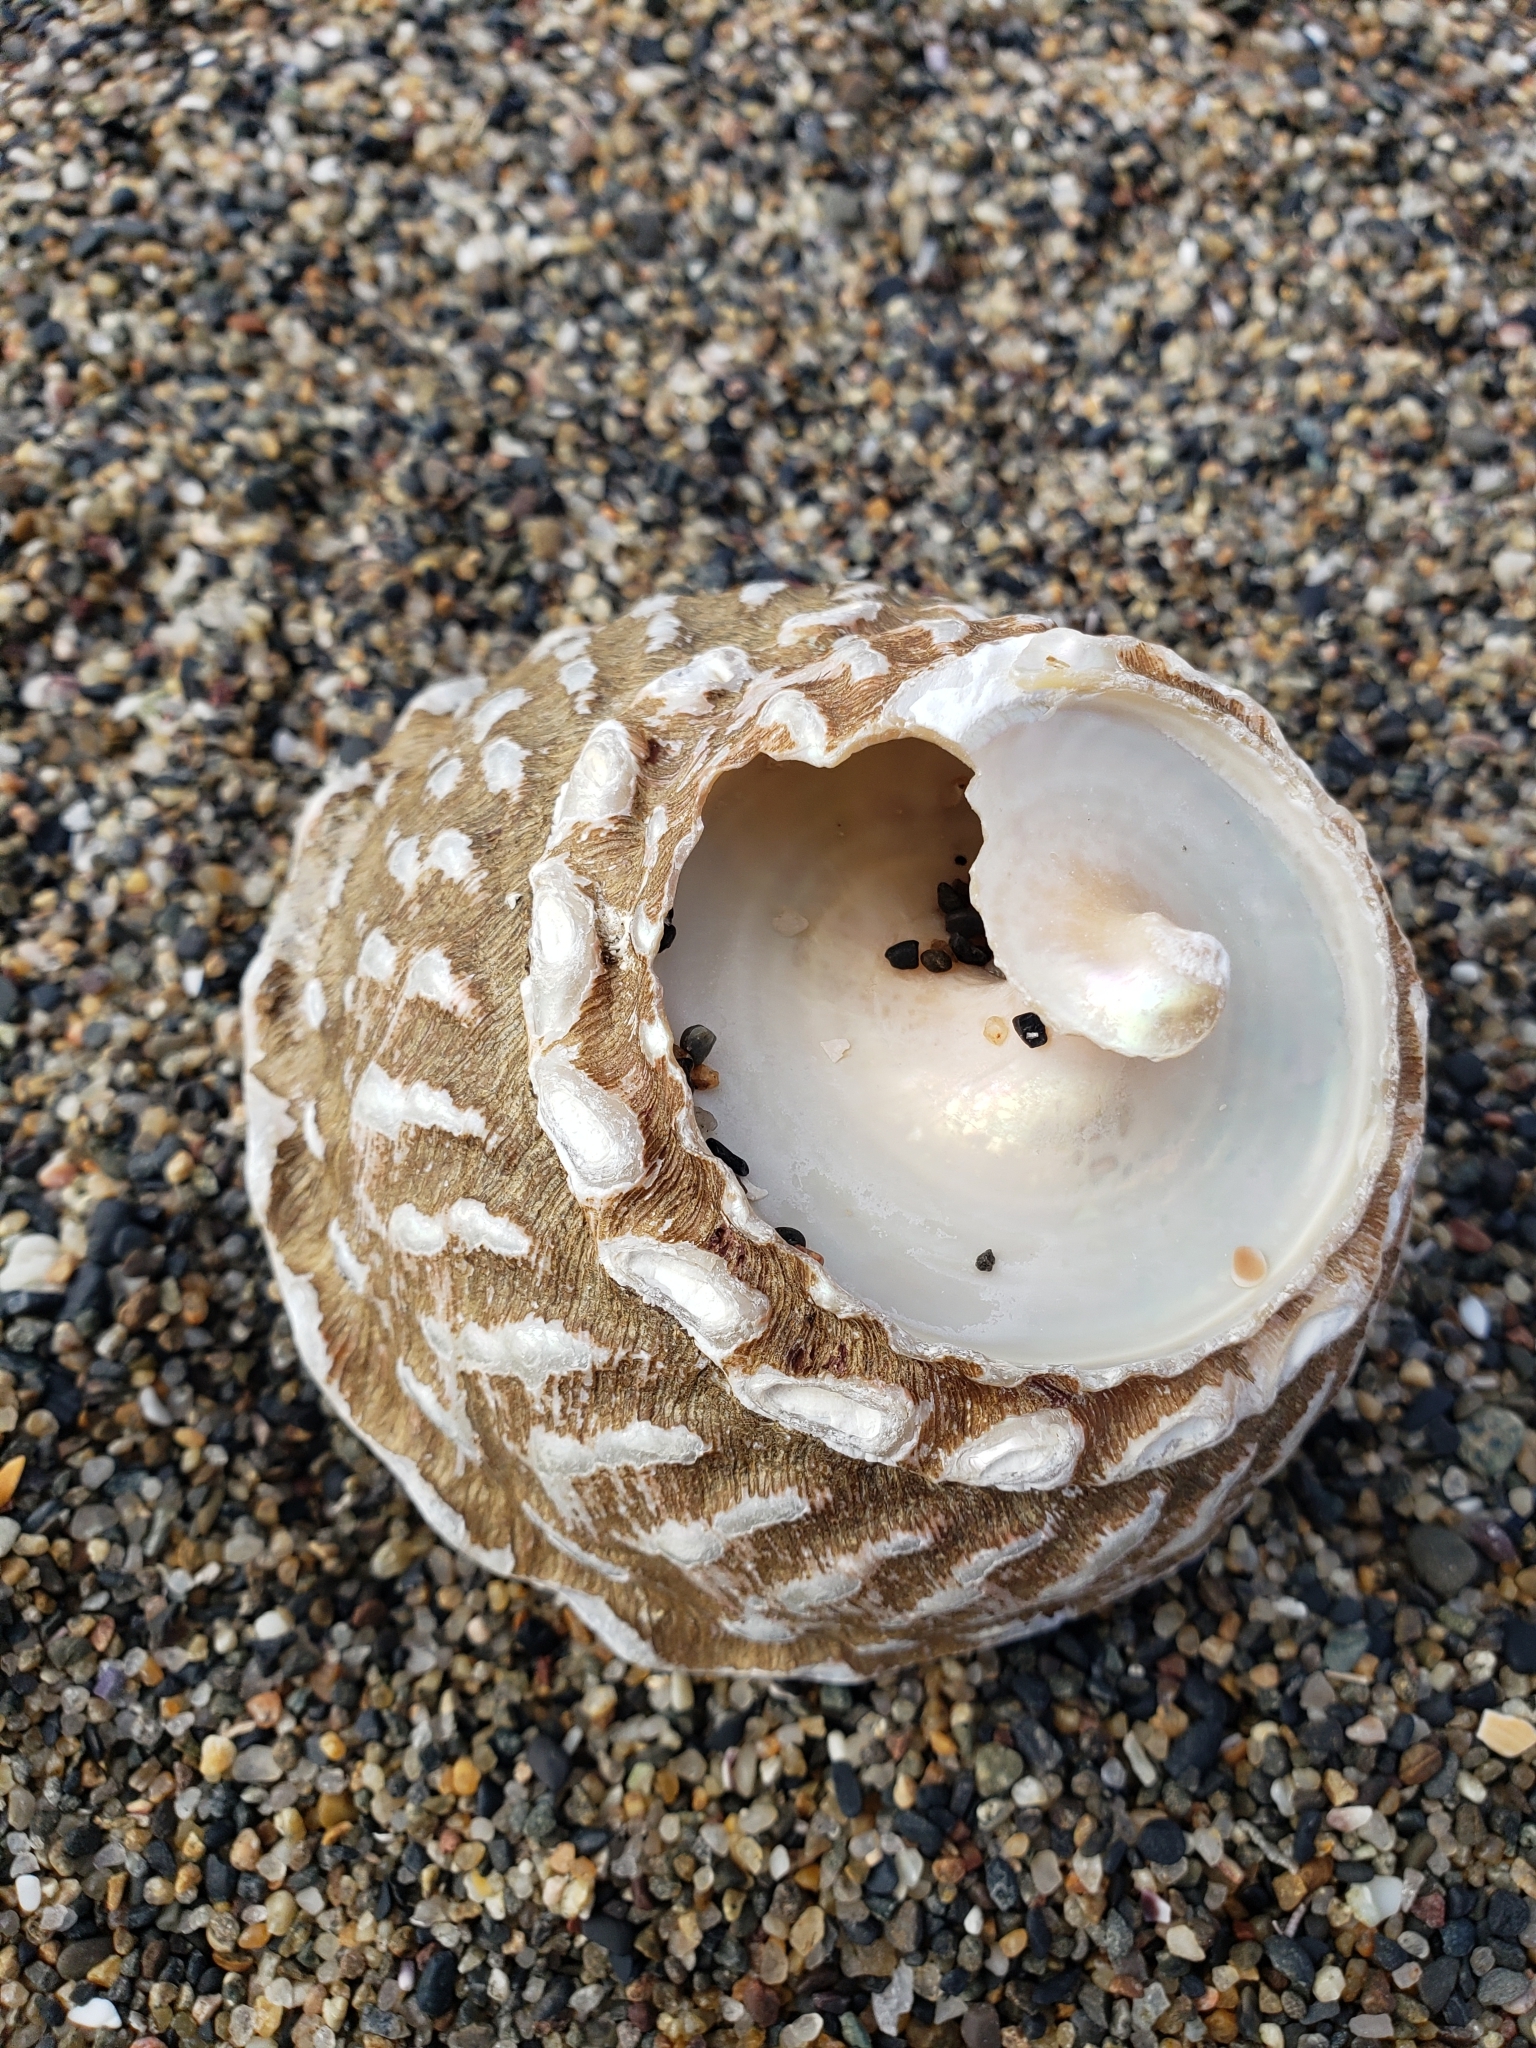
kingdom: Animalia
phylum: Mollusca
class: Gastropoda
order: Trochida
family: Turbinidae
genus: Megastraea
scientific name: Megastraea undosa
